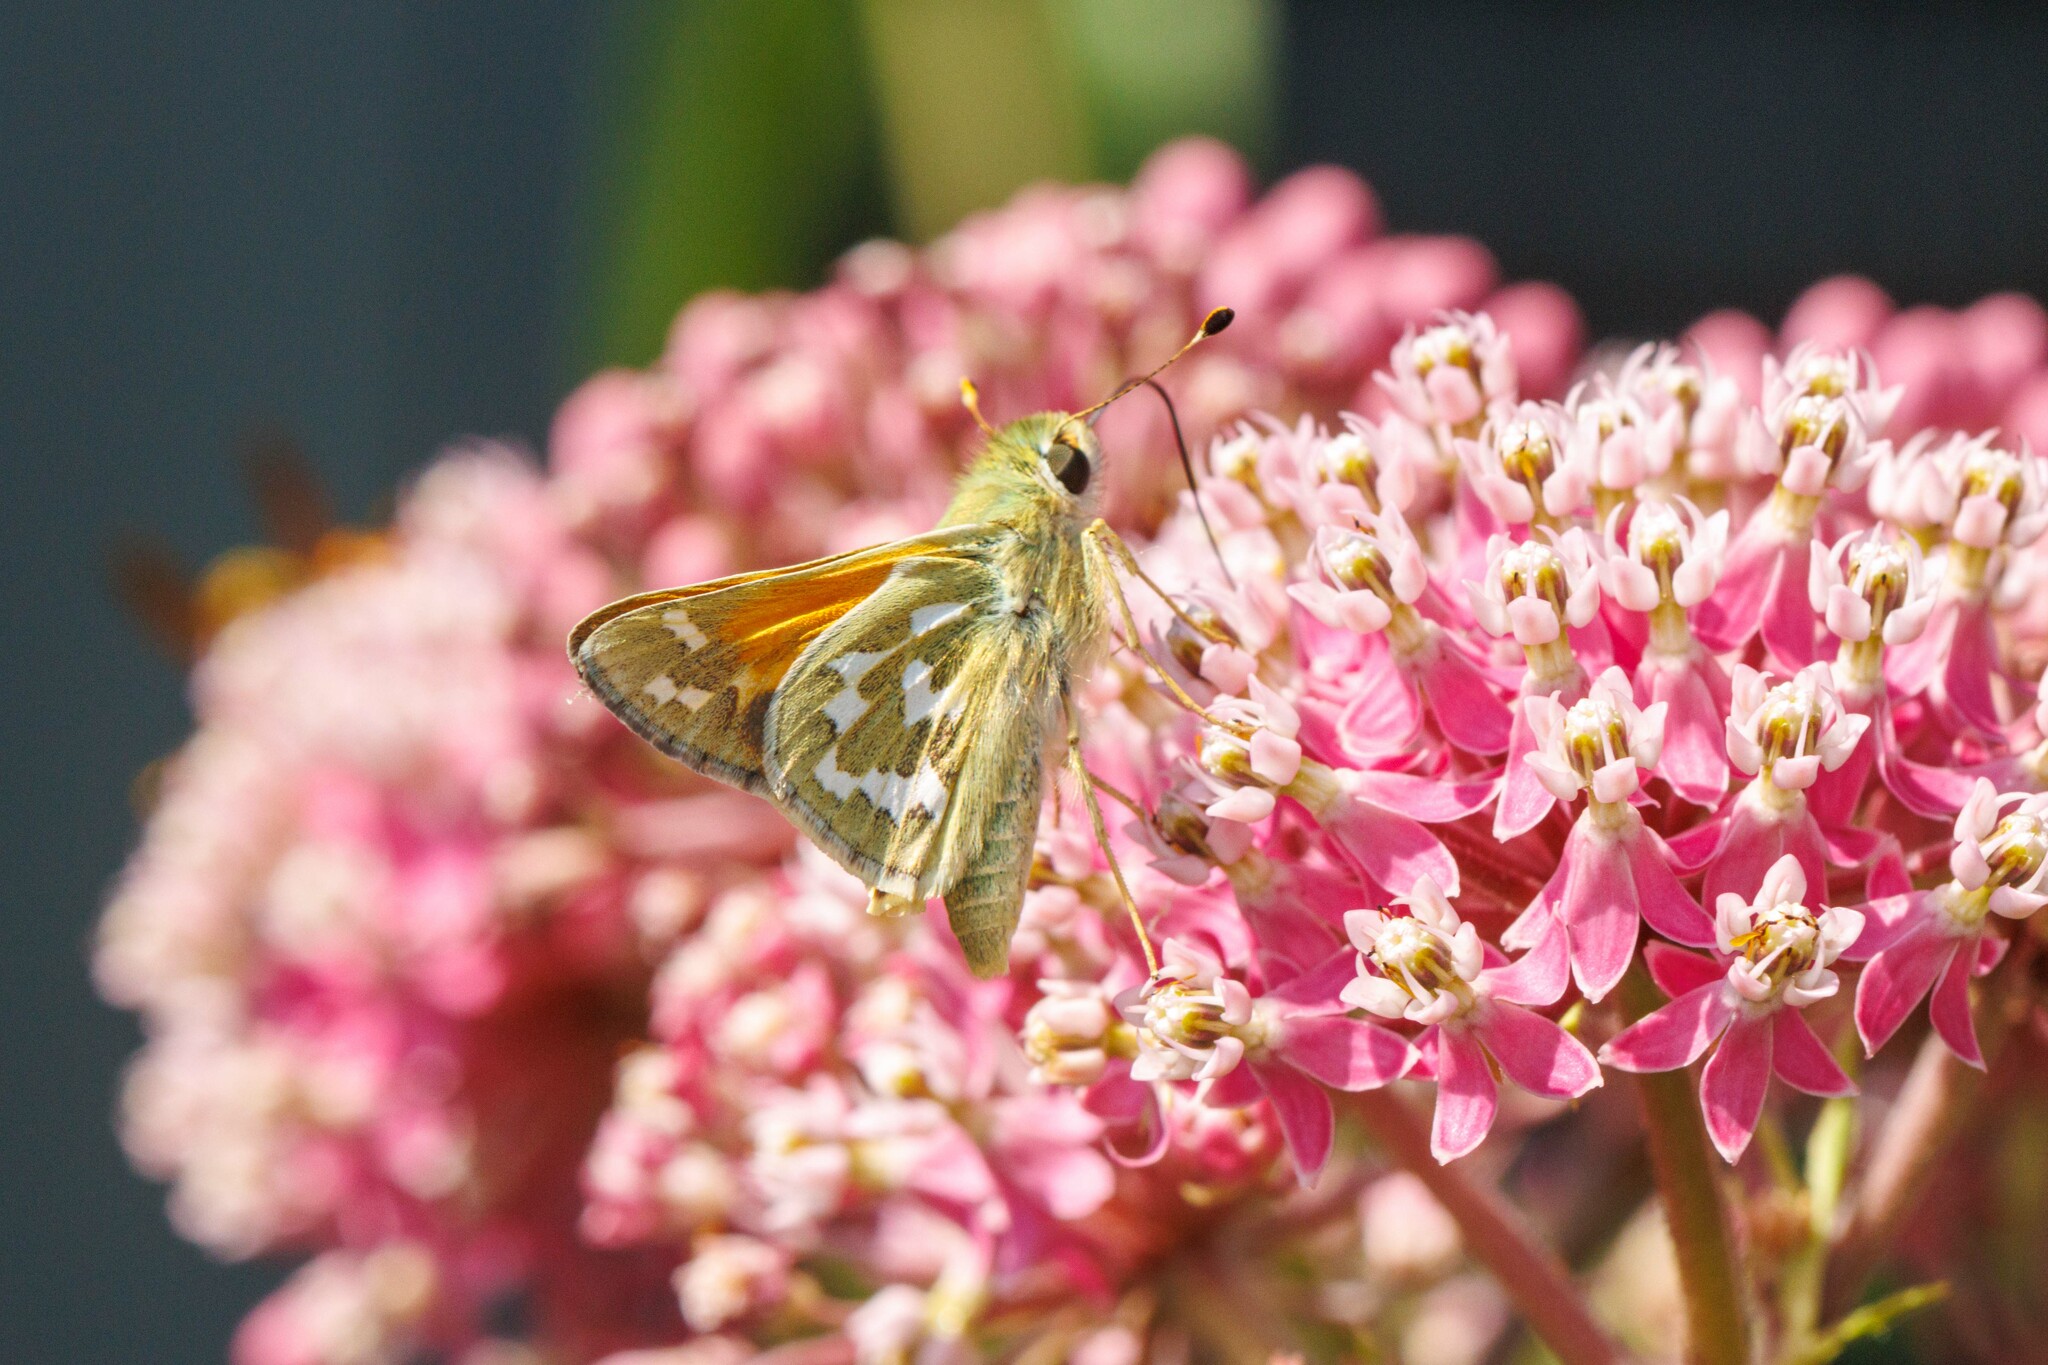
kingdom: Animalia
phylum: Arthropoda
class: Insecta
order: Lepidoptera
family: Hesperiidae
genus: Hesperia
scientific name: Hesperia comma
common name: Common branded skipper
